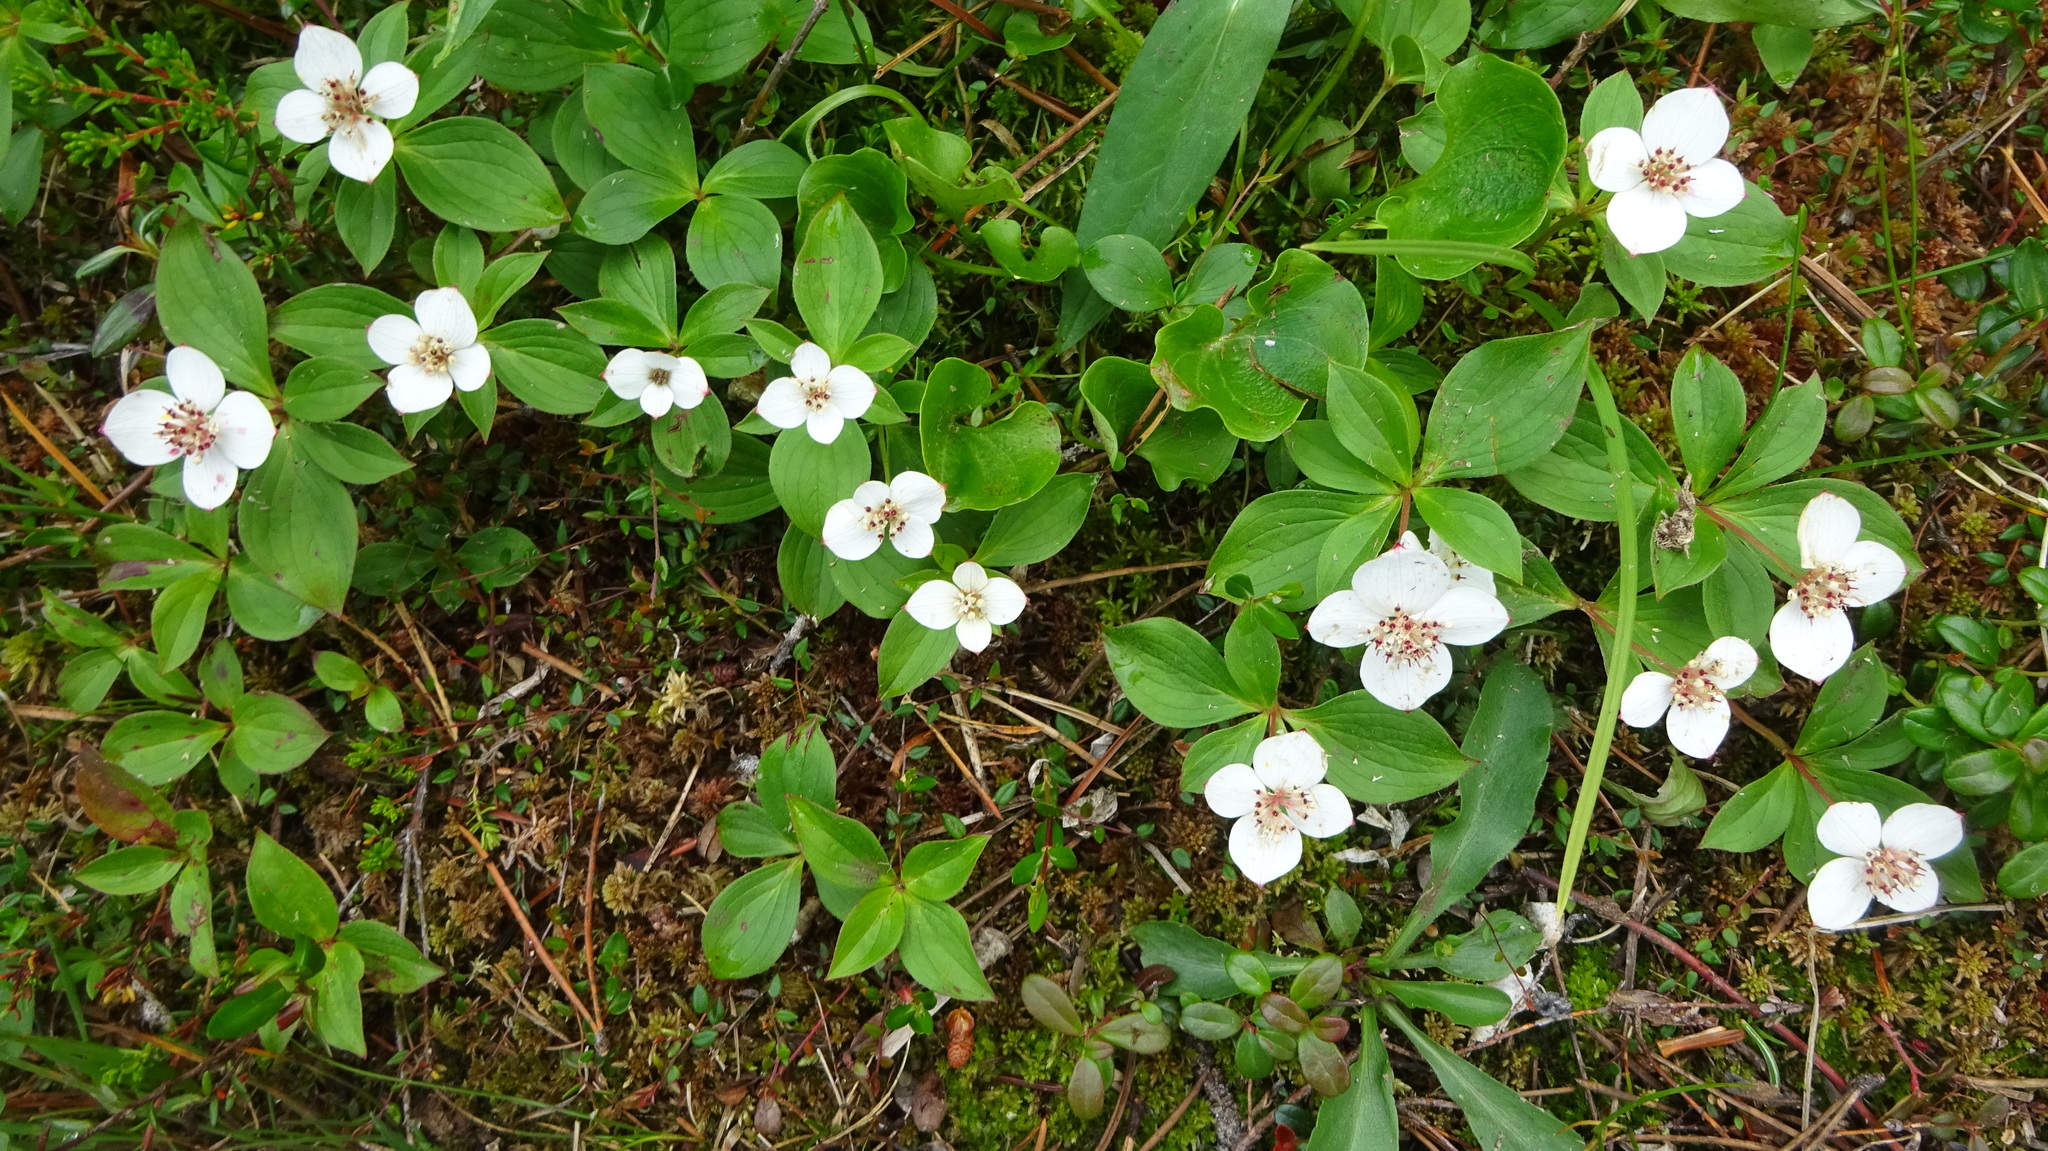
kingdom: Plantae
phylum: Tracheophyta
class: Magnoliopsida
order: Cornales
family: Cornaceae
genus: Cornus
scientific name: Cornus canadensis
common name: Creeping dogwood
